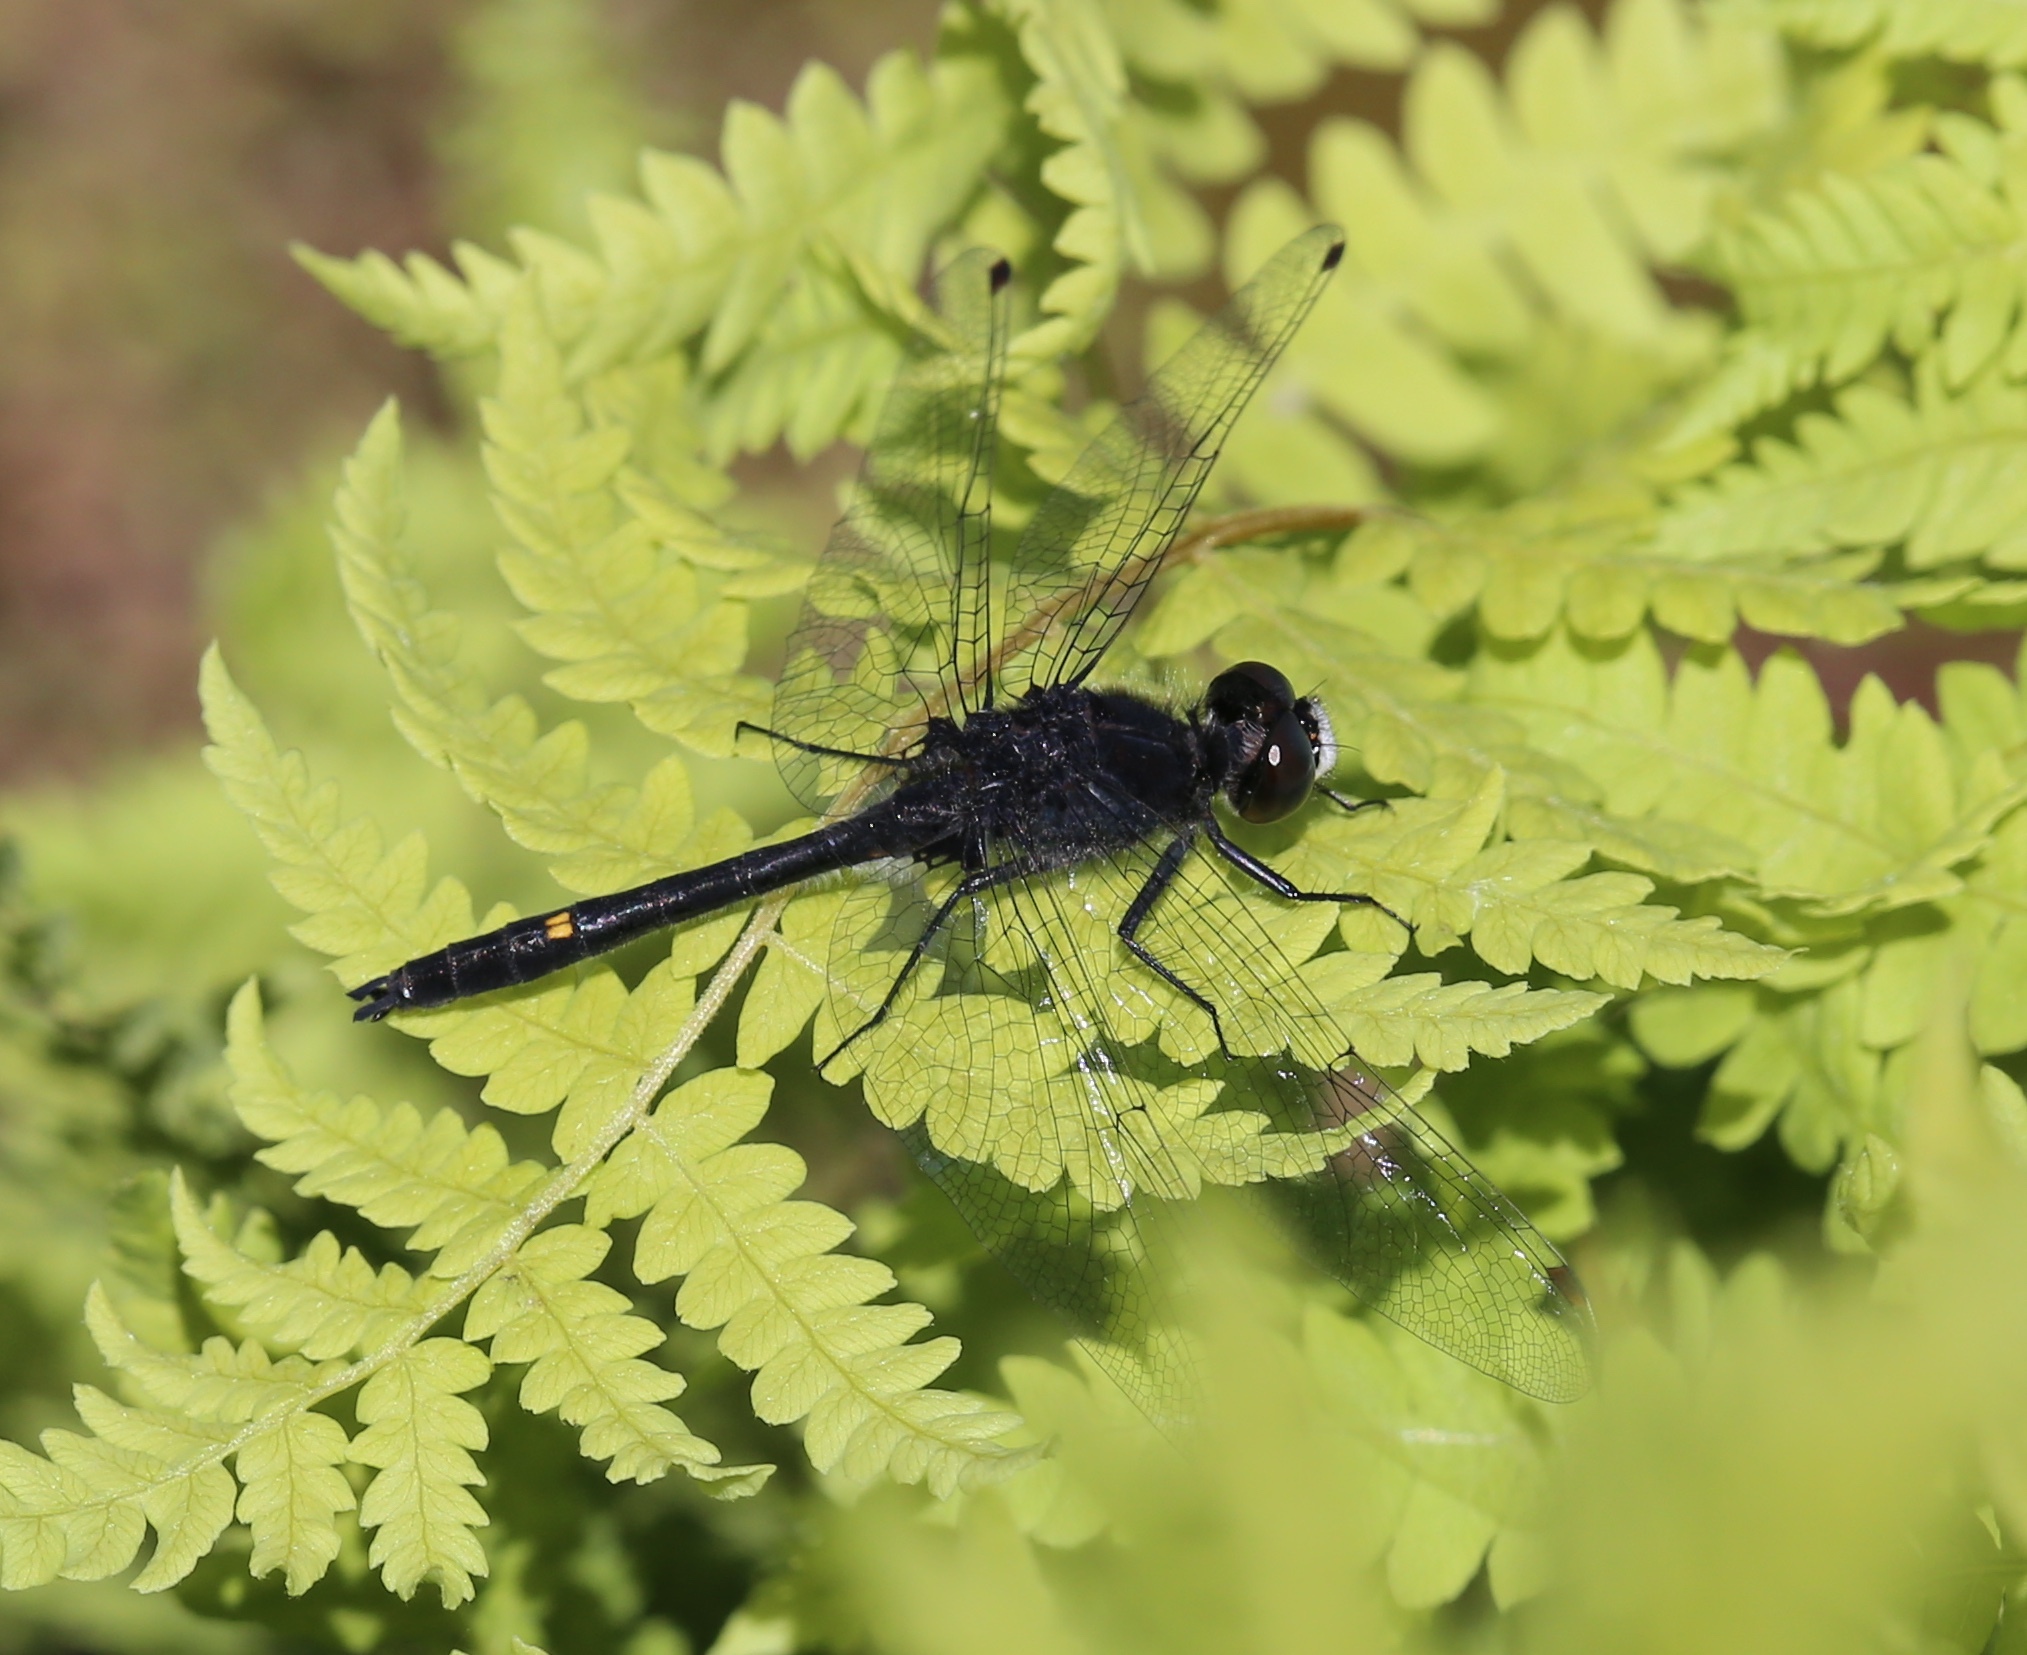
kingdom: Animalia
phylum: Arthropoda
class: Insecta
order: Odonata
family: Libellulidae
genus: Leucorrhinia
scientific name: Leucorrhinia intacta
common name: Dot-tailed whiteface
